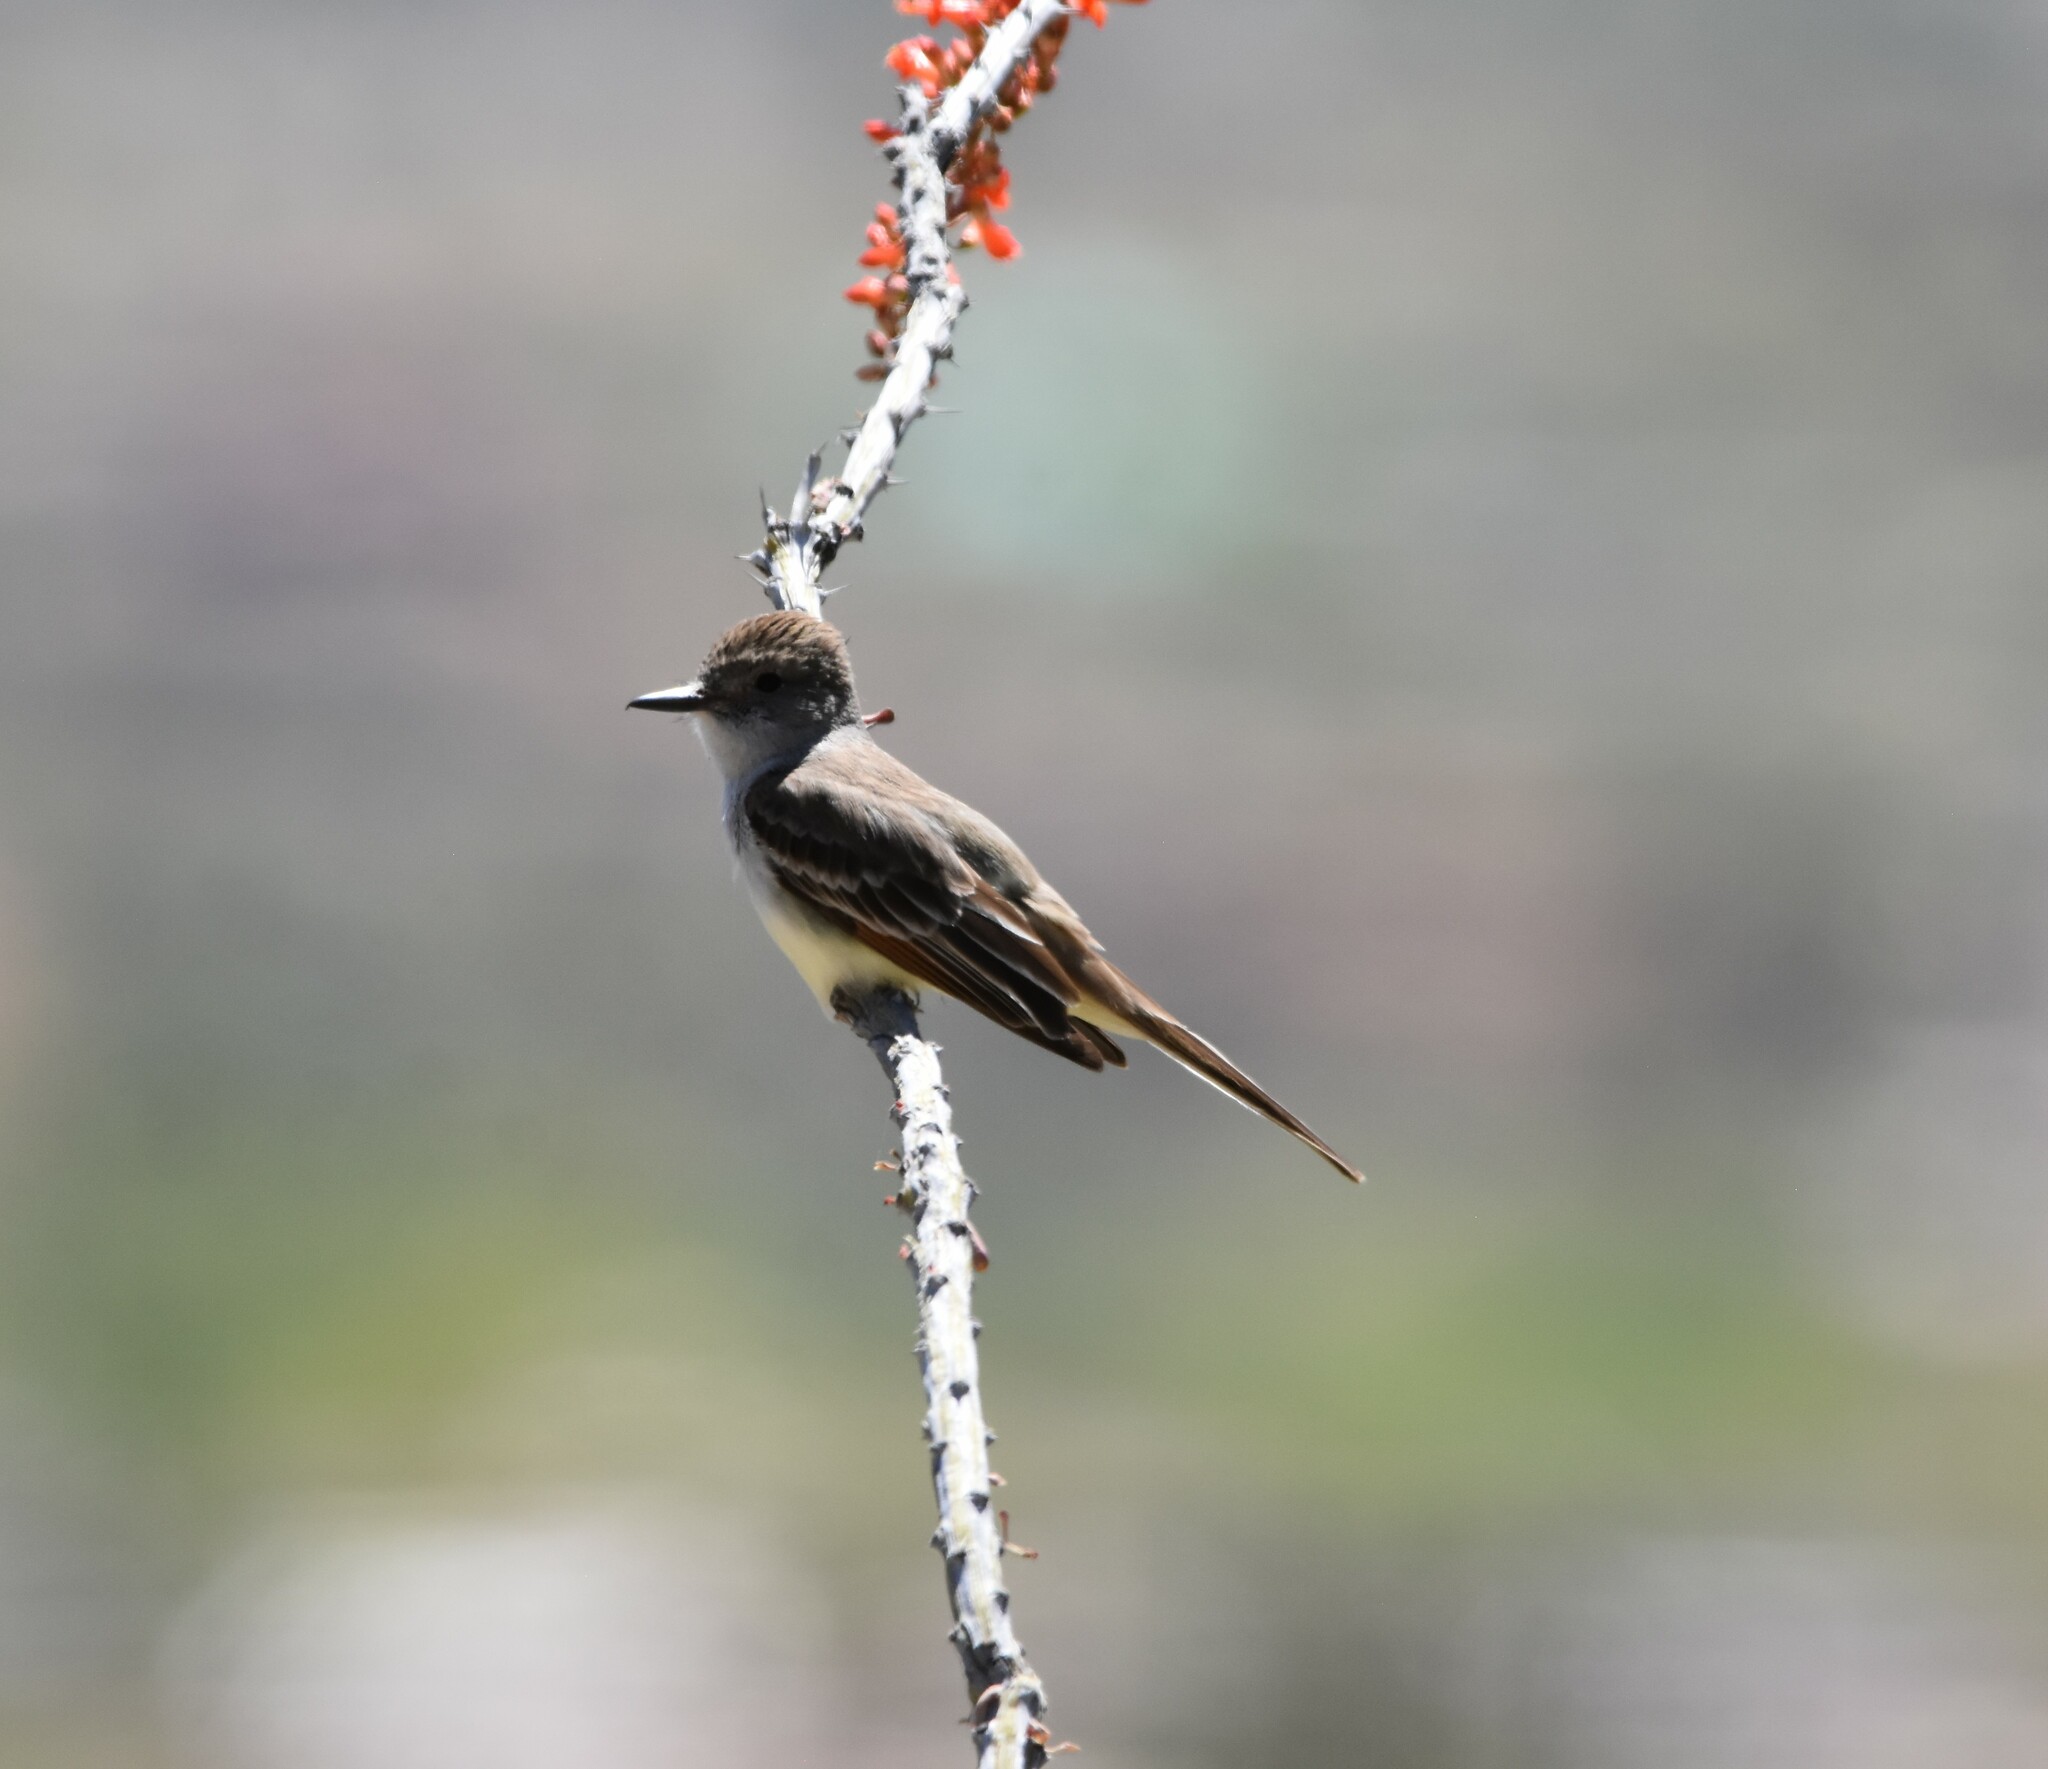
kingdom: Animalia
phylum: Chordata
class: Aves
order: Passeriformes
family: Tyrannidae
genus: Myiarchus
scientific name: Myiarchus cinerascens
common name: Ash-throated flycatcher
